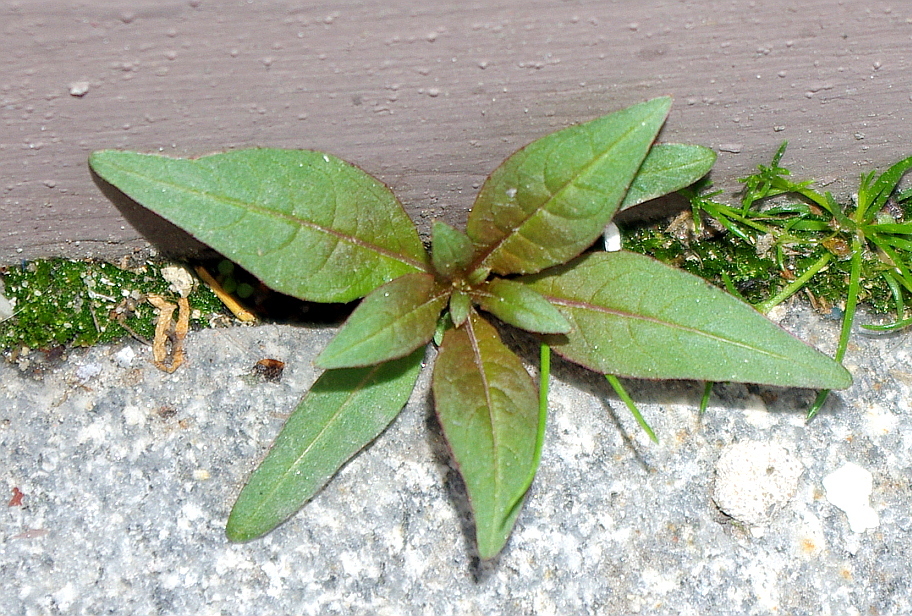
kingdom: Plantae
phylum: Tracheophyta
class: Magnoliopsida
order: Myrtales
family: Onagraceae
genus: Chamaenerion
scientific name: Chamaenerion angustifolium
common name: Fireweed
